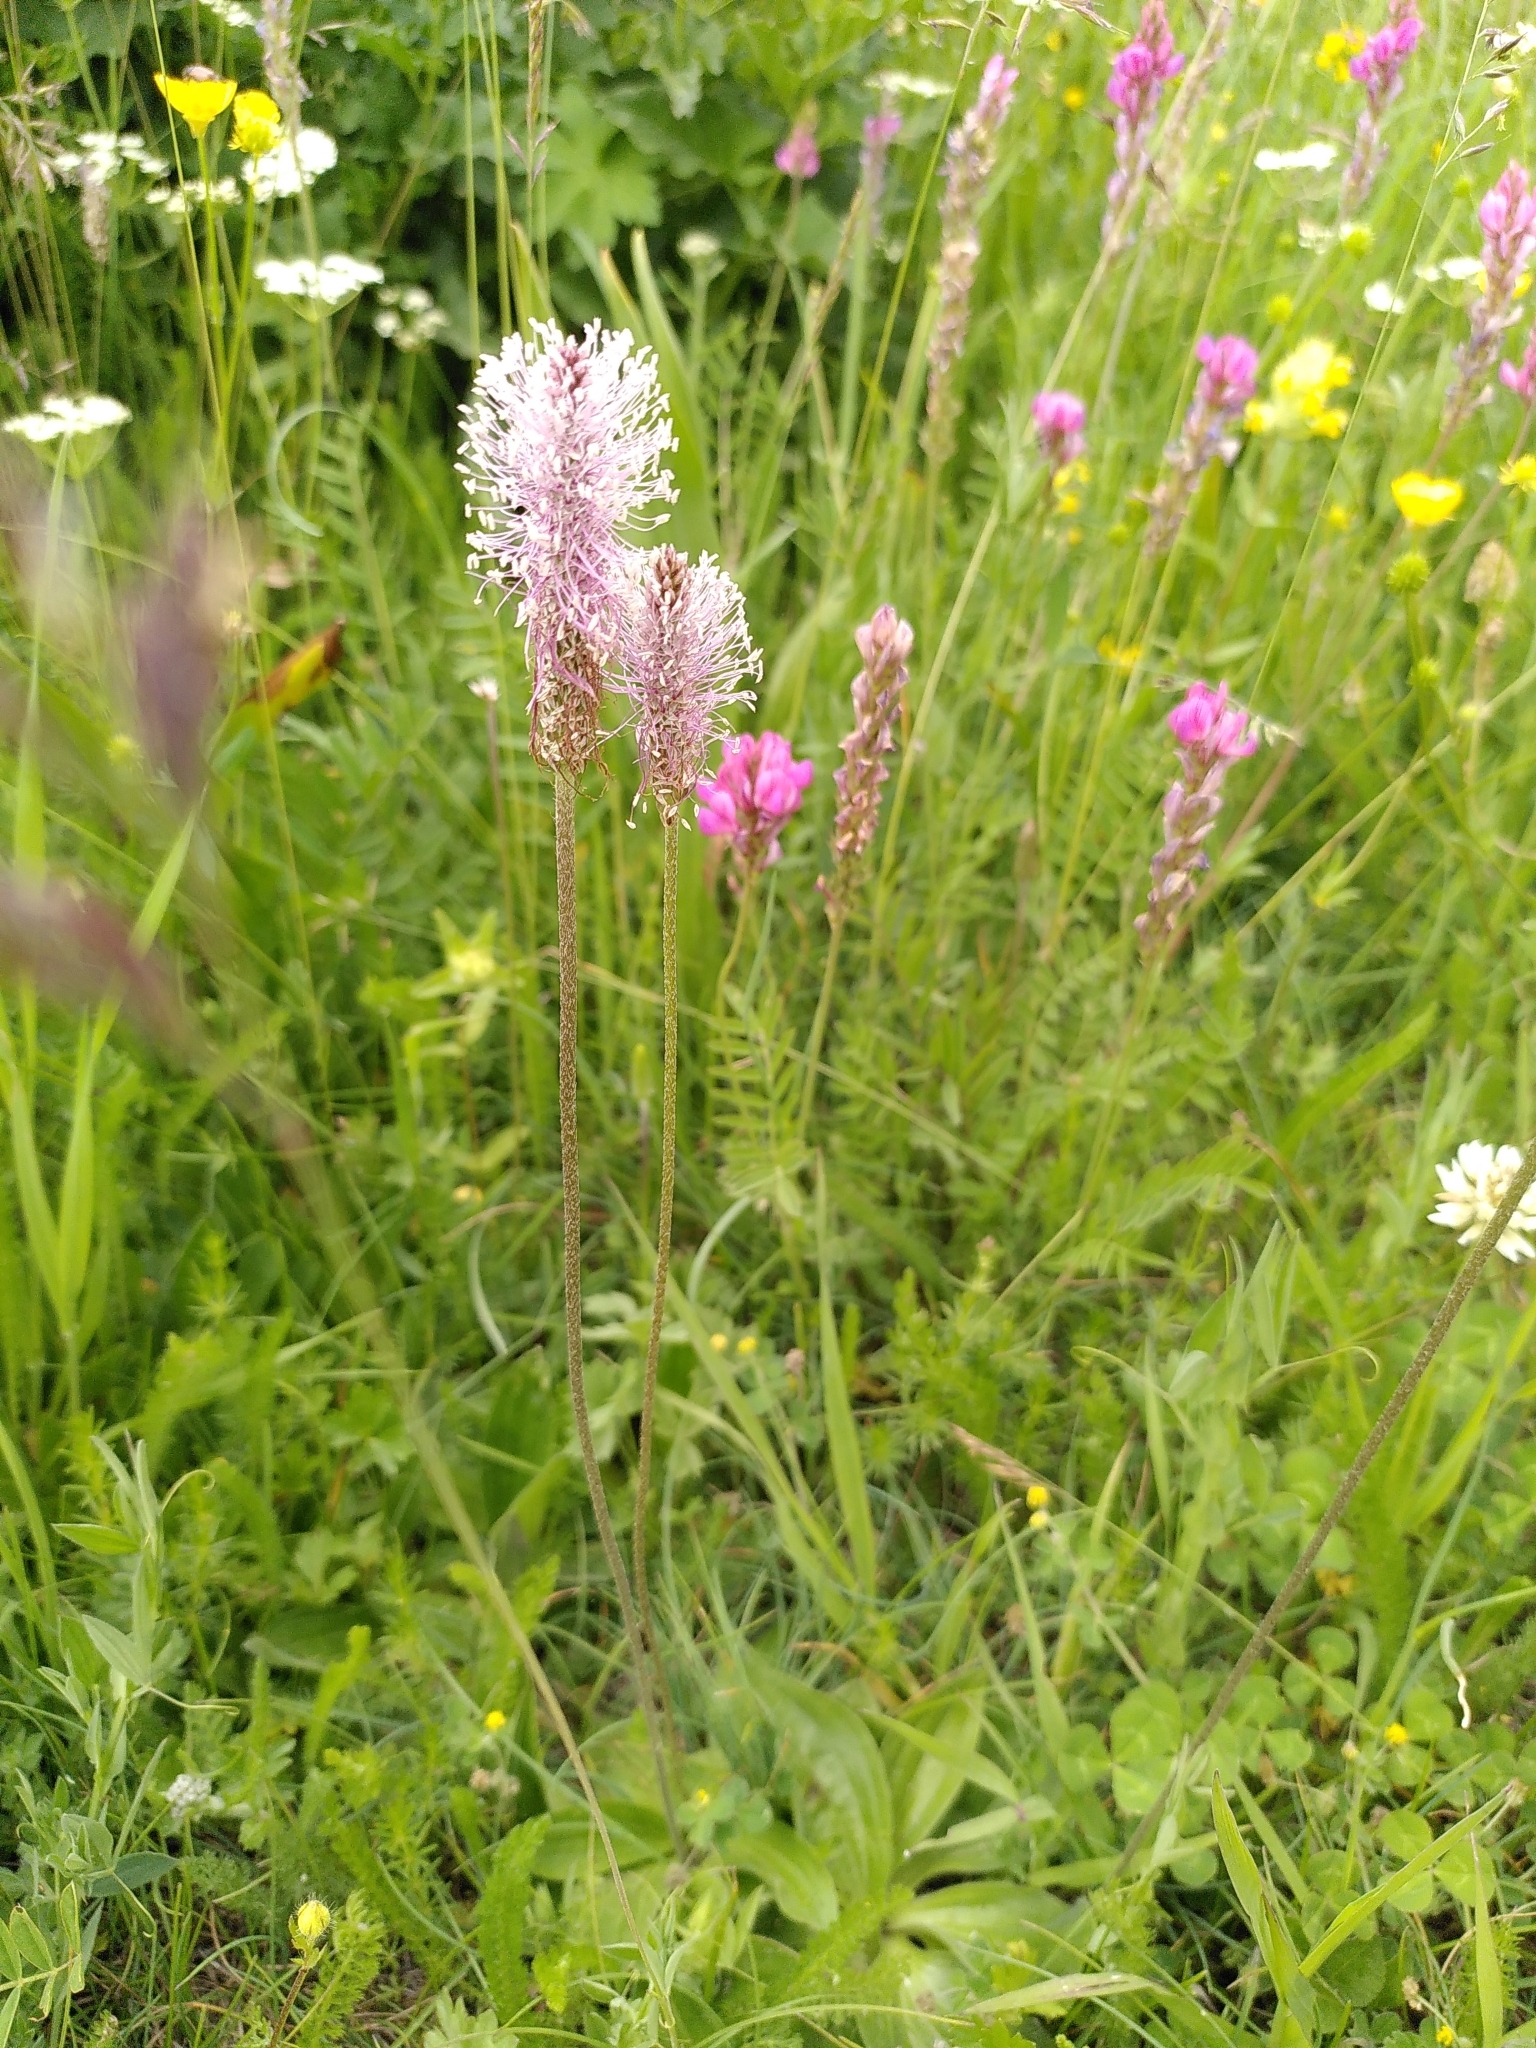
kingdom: Plantae
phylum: Tracheophyta
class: Magnoliopsida
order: Lamiales
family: Plantaginaceae
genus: Plantago
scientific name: Plantago media
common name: Hoary plantain
